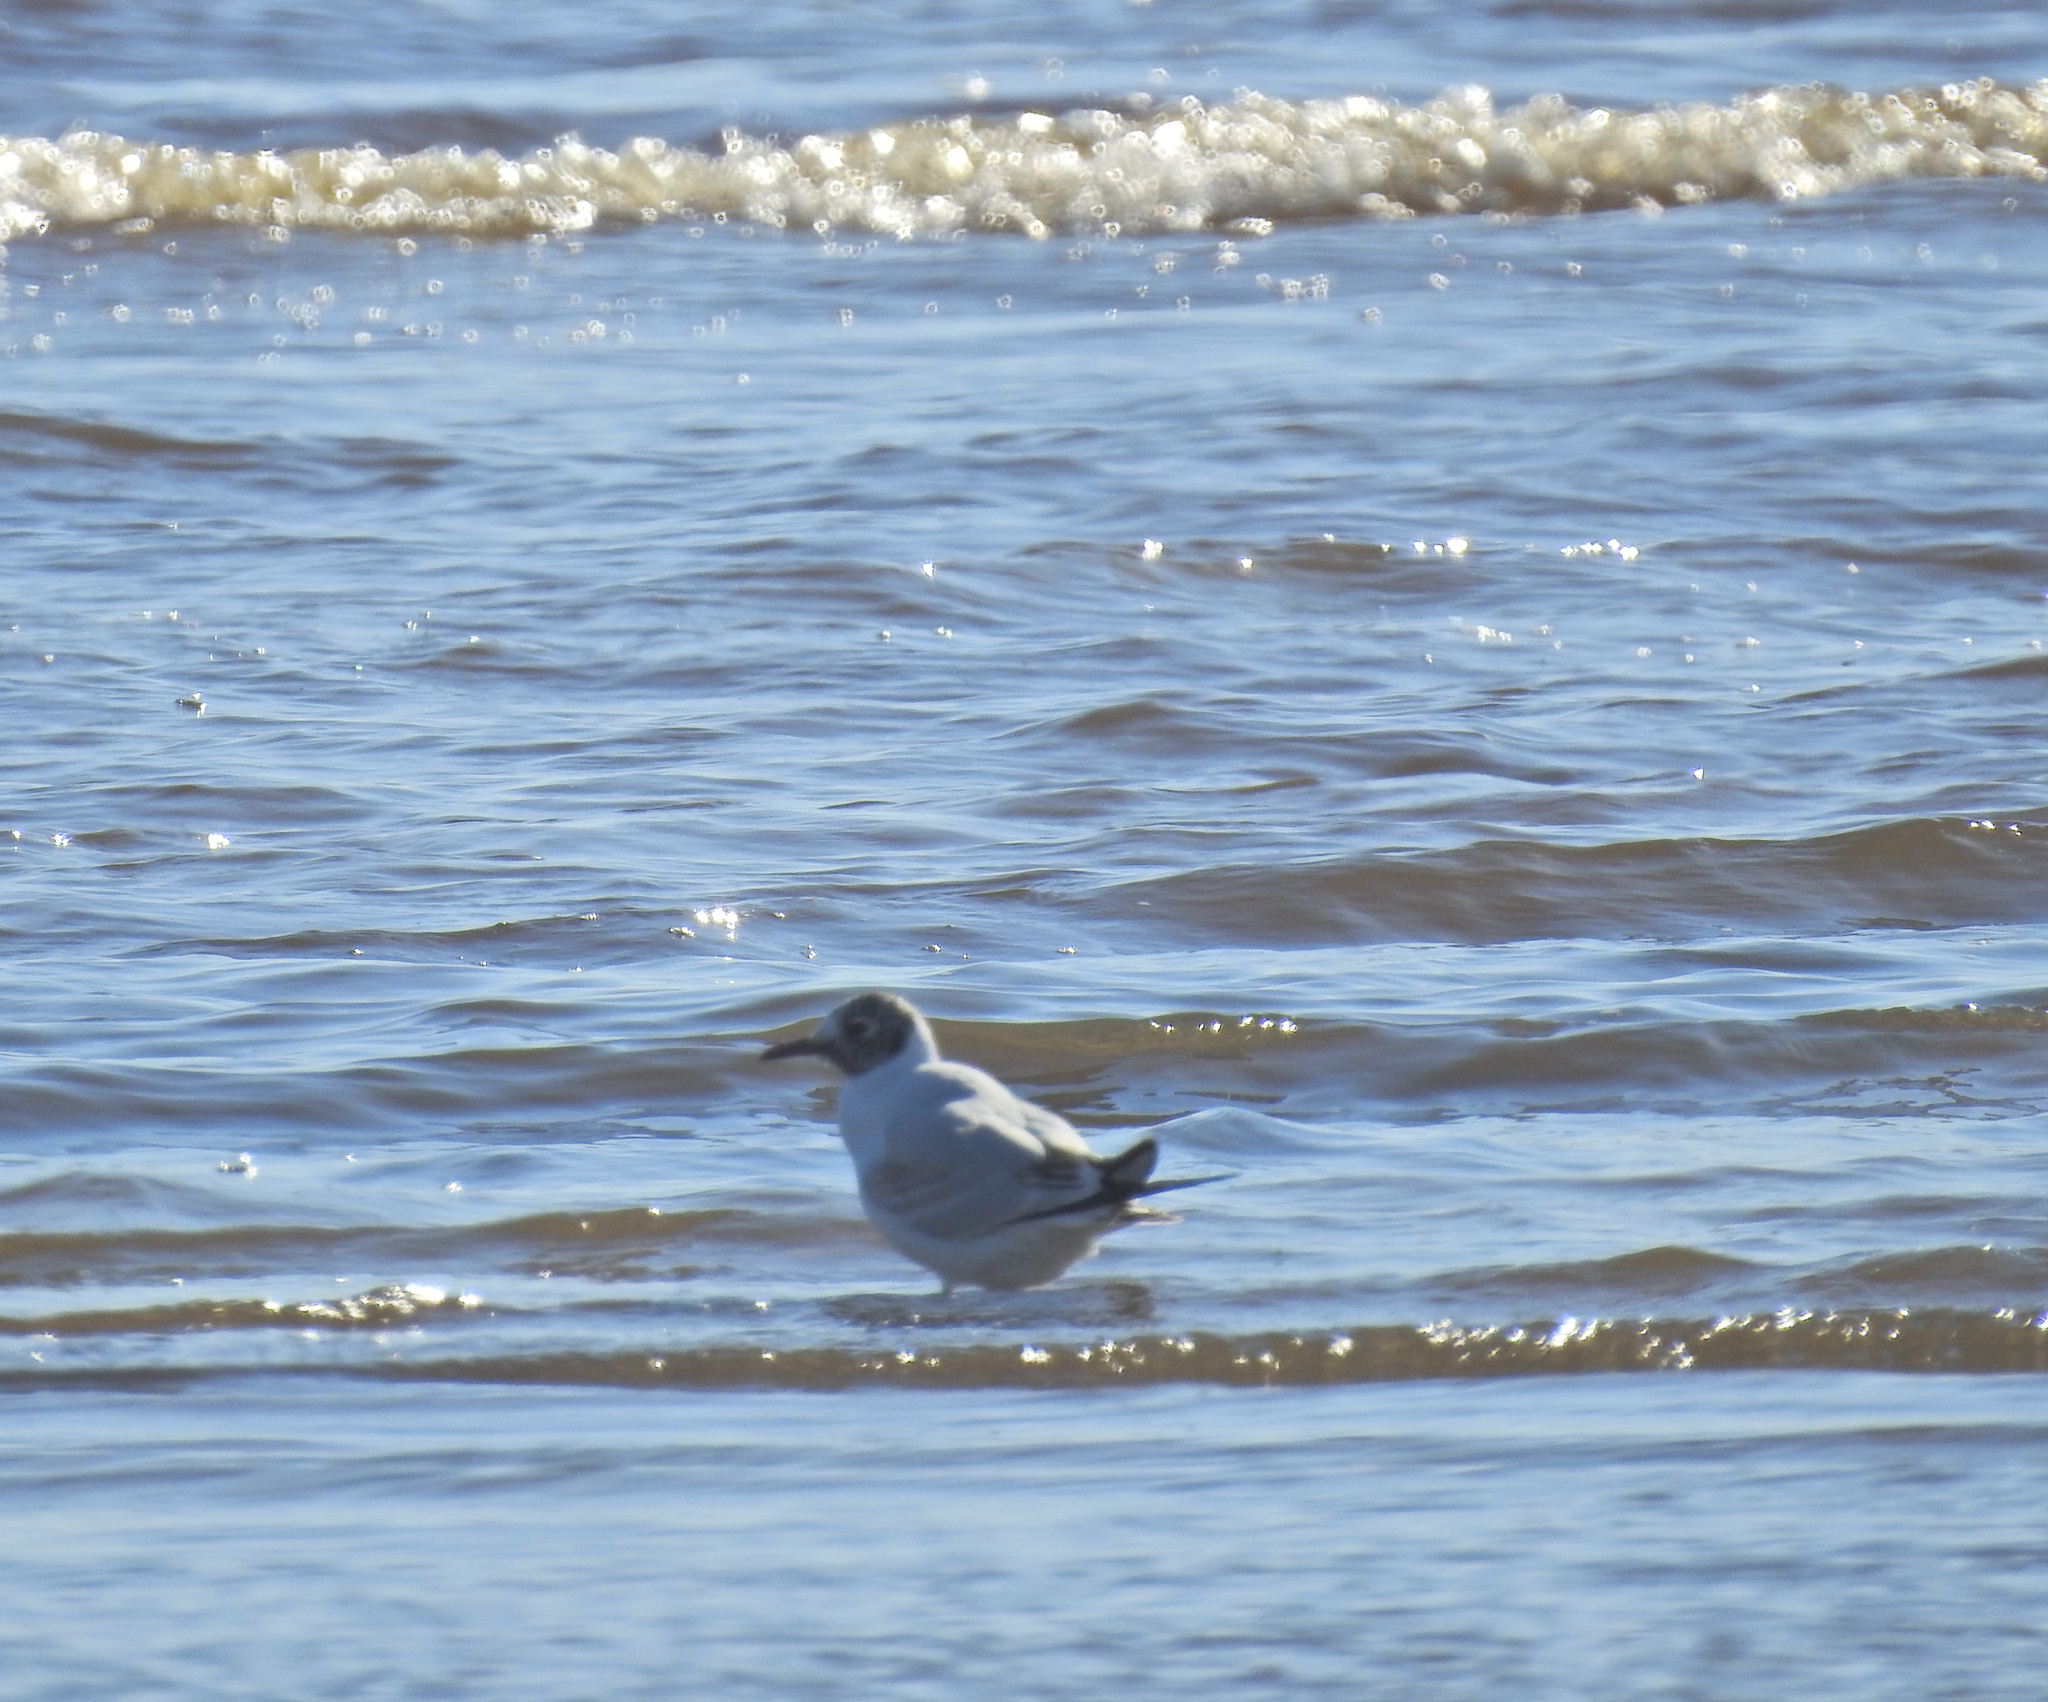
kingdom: Animalia
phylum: Chordata
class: Aves
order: Charadriiformes
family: Laridae
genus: Chroicocephalus
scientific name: Chroicocephalus ridibundus
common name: Black-headed gull
